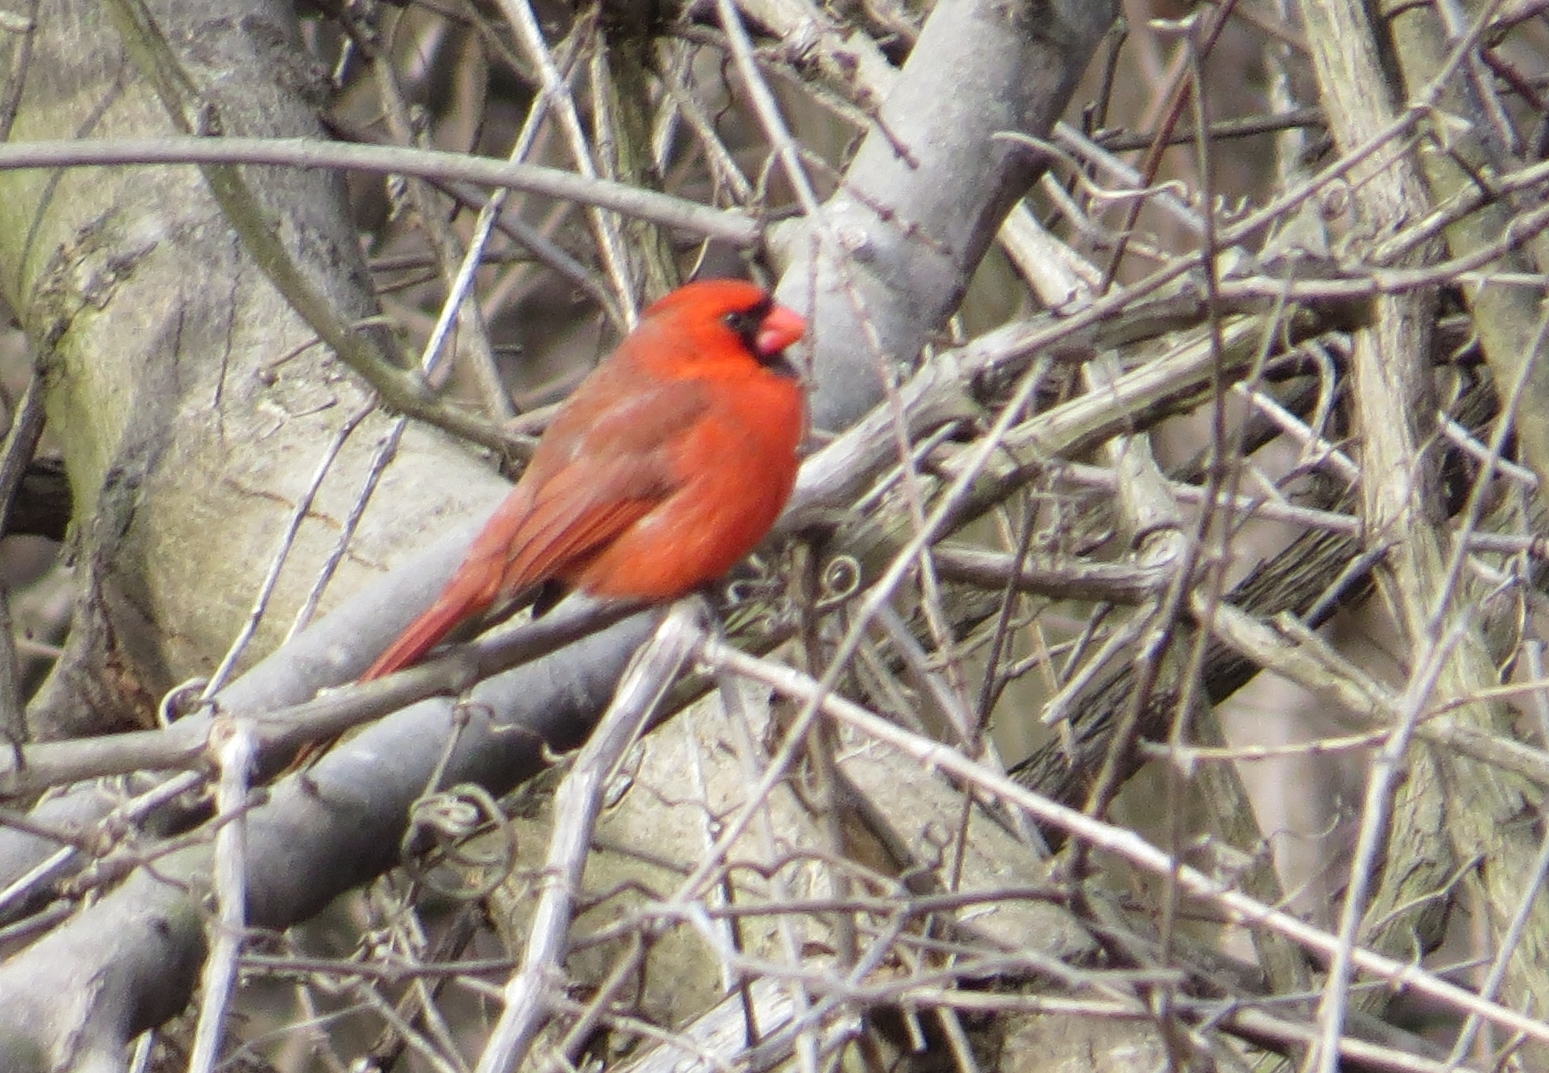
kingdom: Animalia
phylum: Chordata
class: Aves
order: Passeriformes
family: Cardinalidae
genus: Cardinalis
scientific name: Cardinalis cardinalis
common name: Northern cardinal
